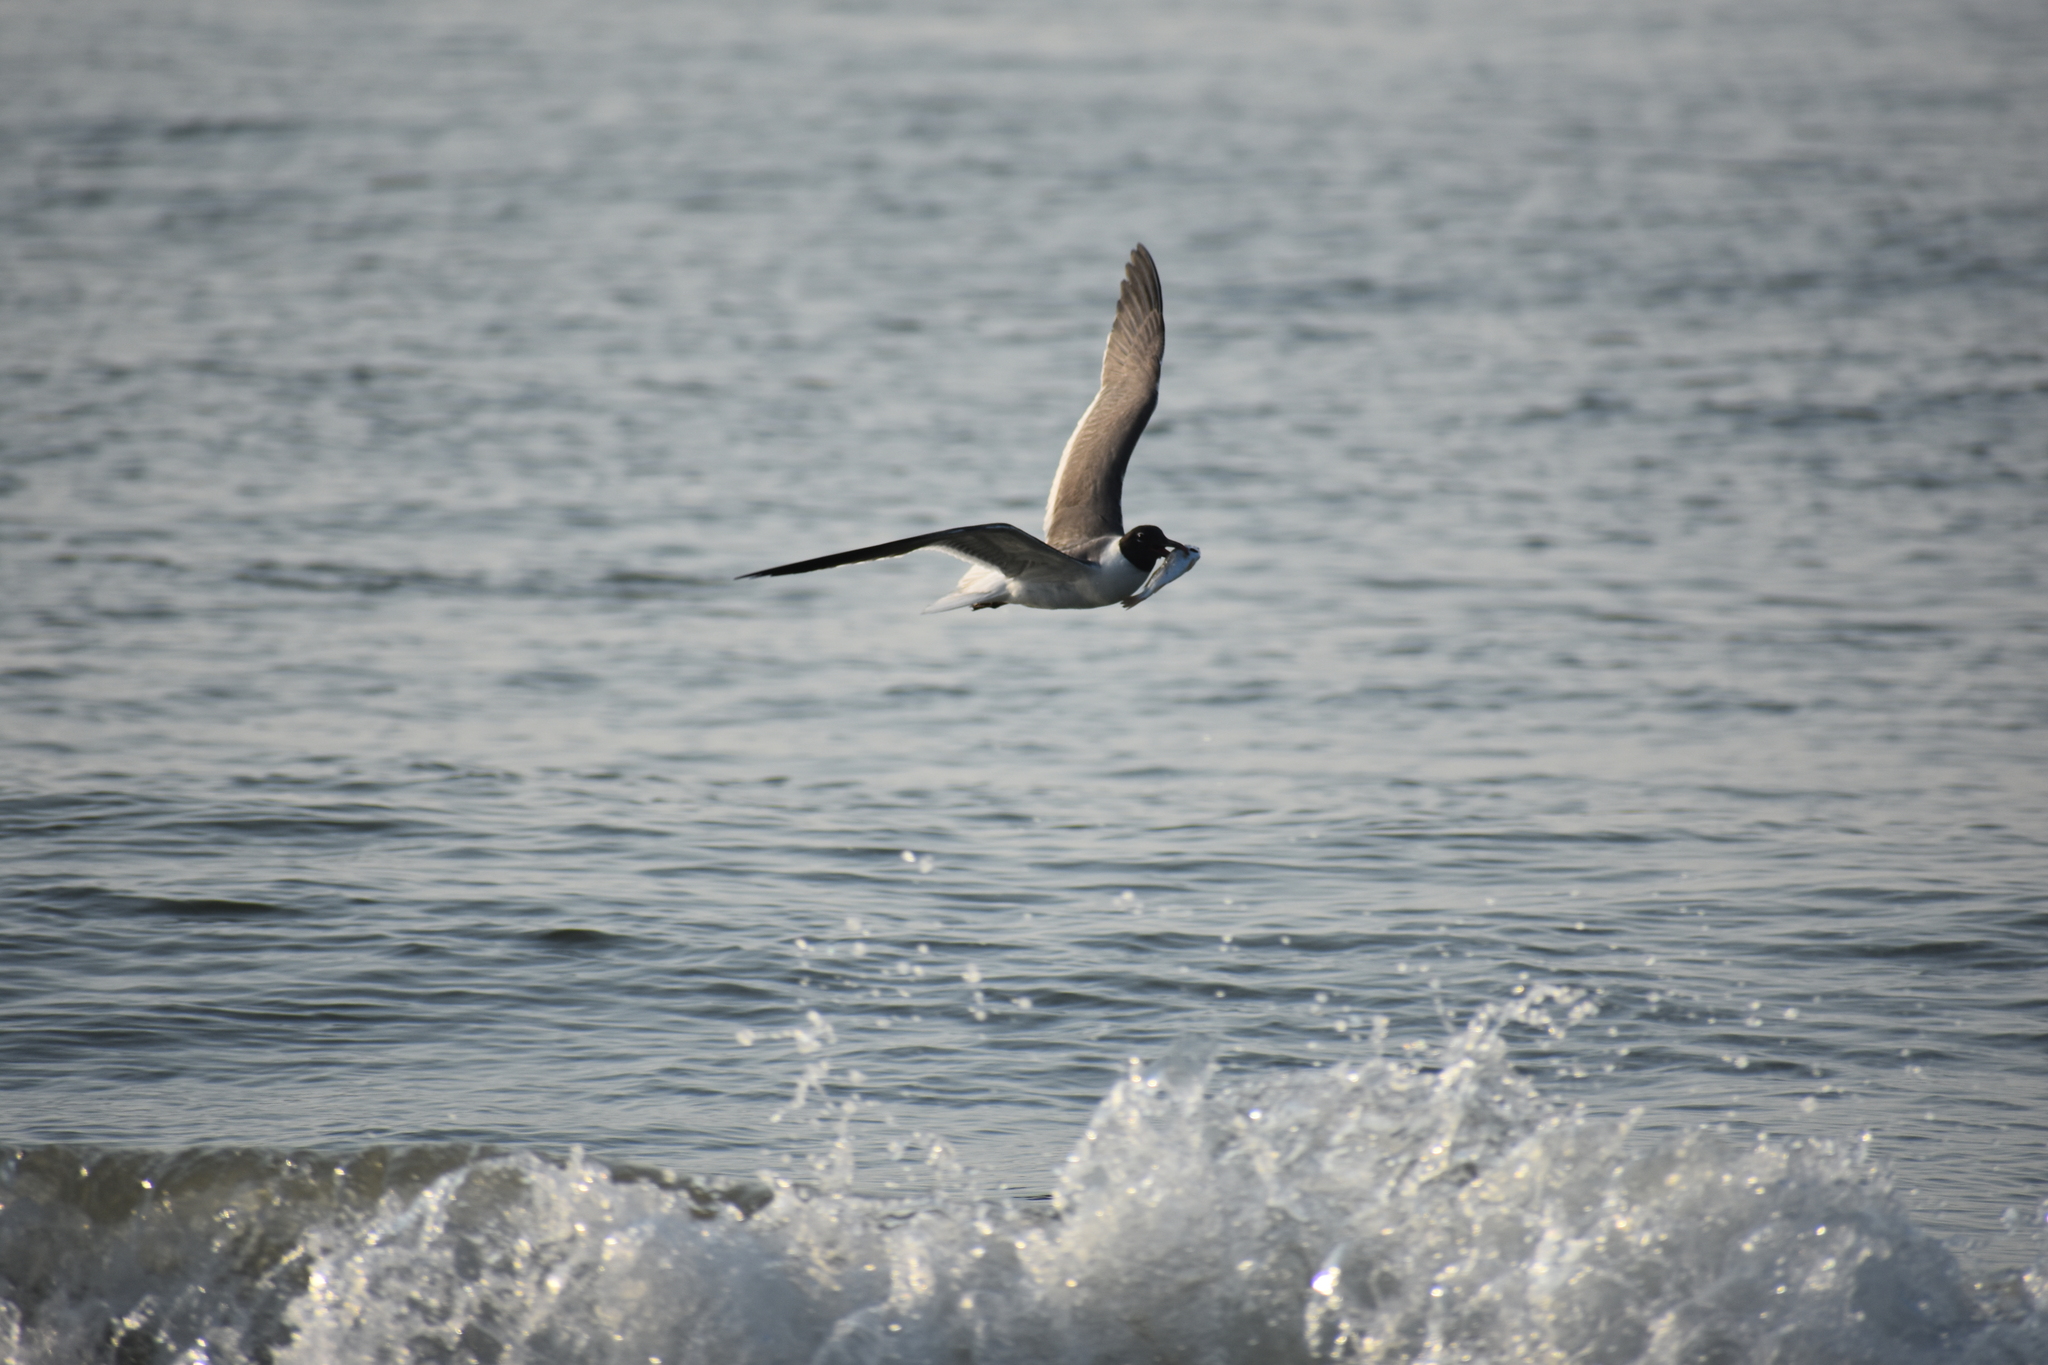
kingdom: Animalia
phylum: Chordata
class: Aves
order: Charadriiformes
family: Laridae
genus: Leucophaeus
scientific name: Leucophaeus atricilla
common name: Laughing gull
